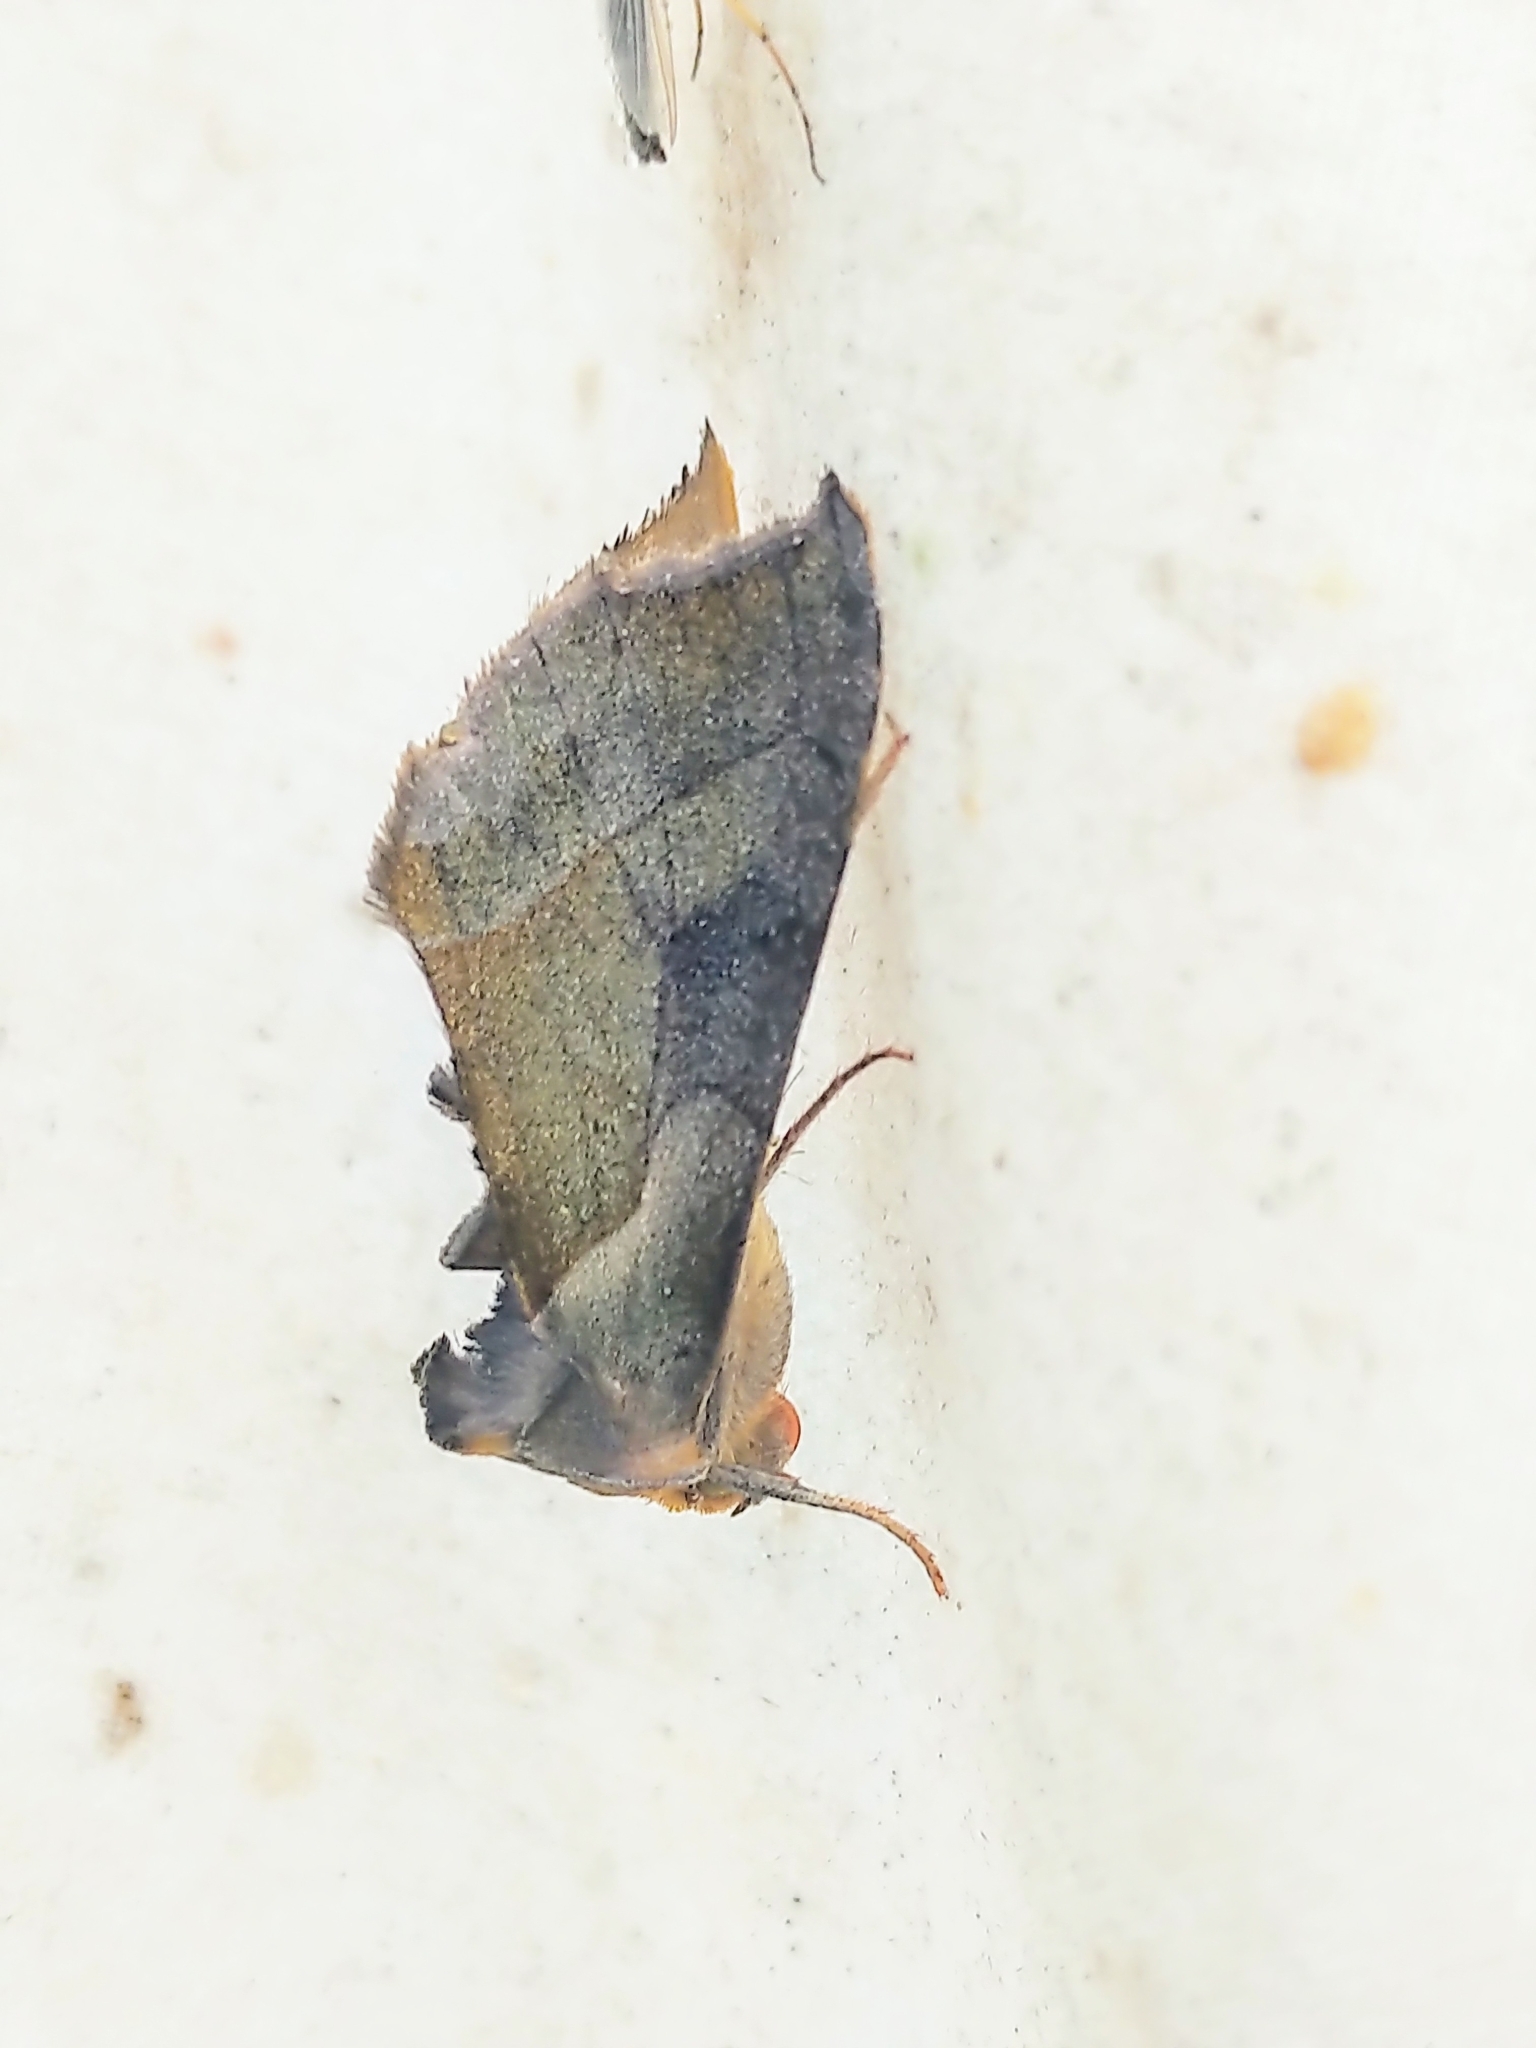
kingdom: Animalia
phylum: Arthropoda
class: Insecta
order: Lepidoptera
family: Noctuidae
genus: Diachrysia
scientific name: Diachrysia balluca
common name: Green-patched looper moth
